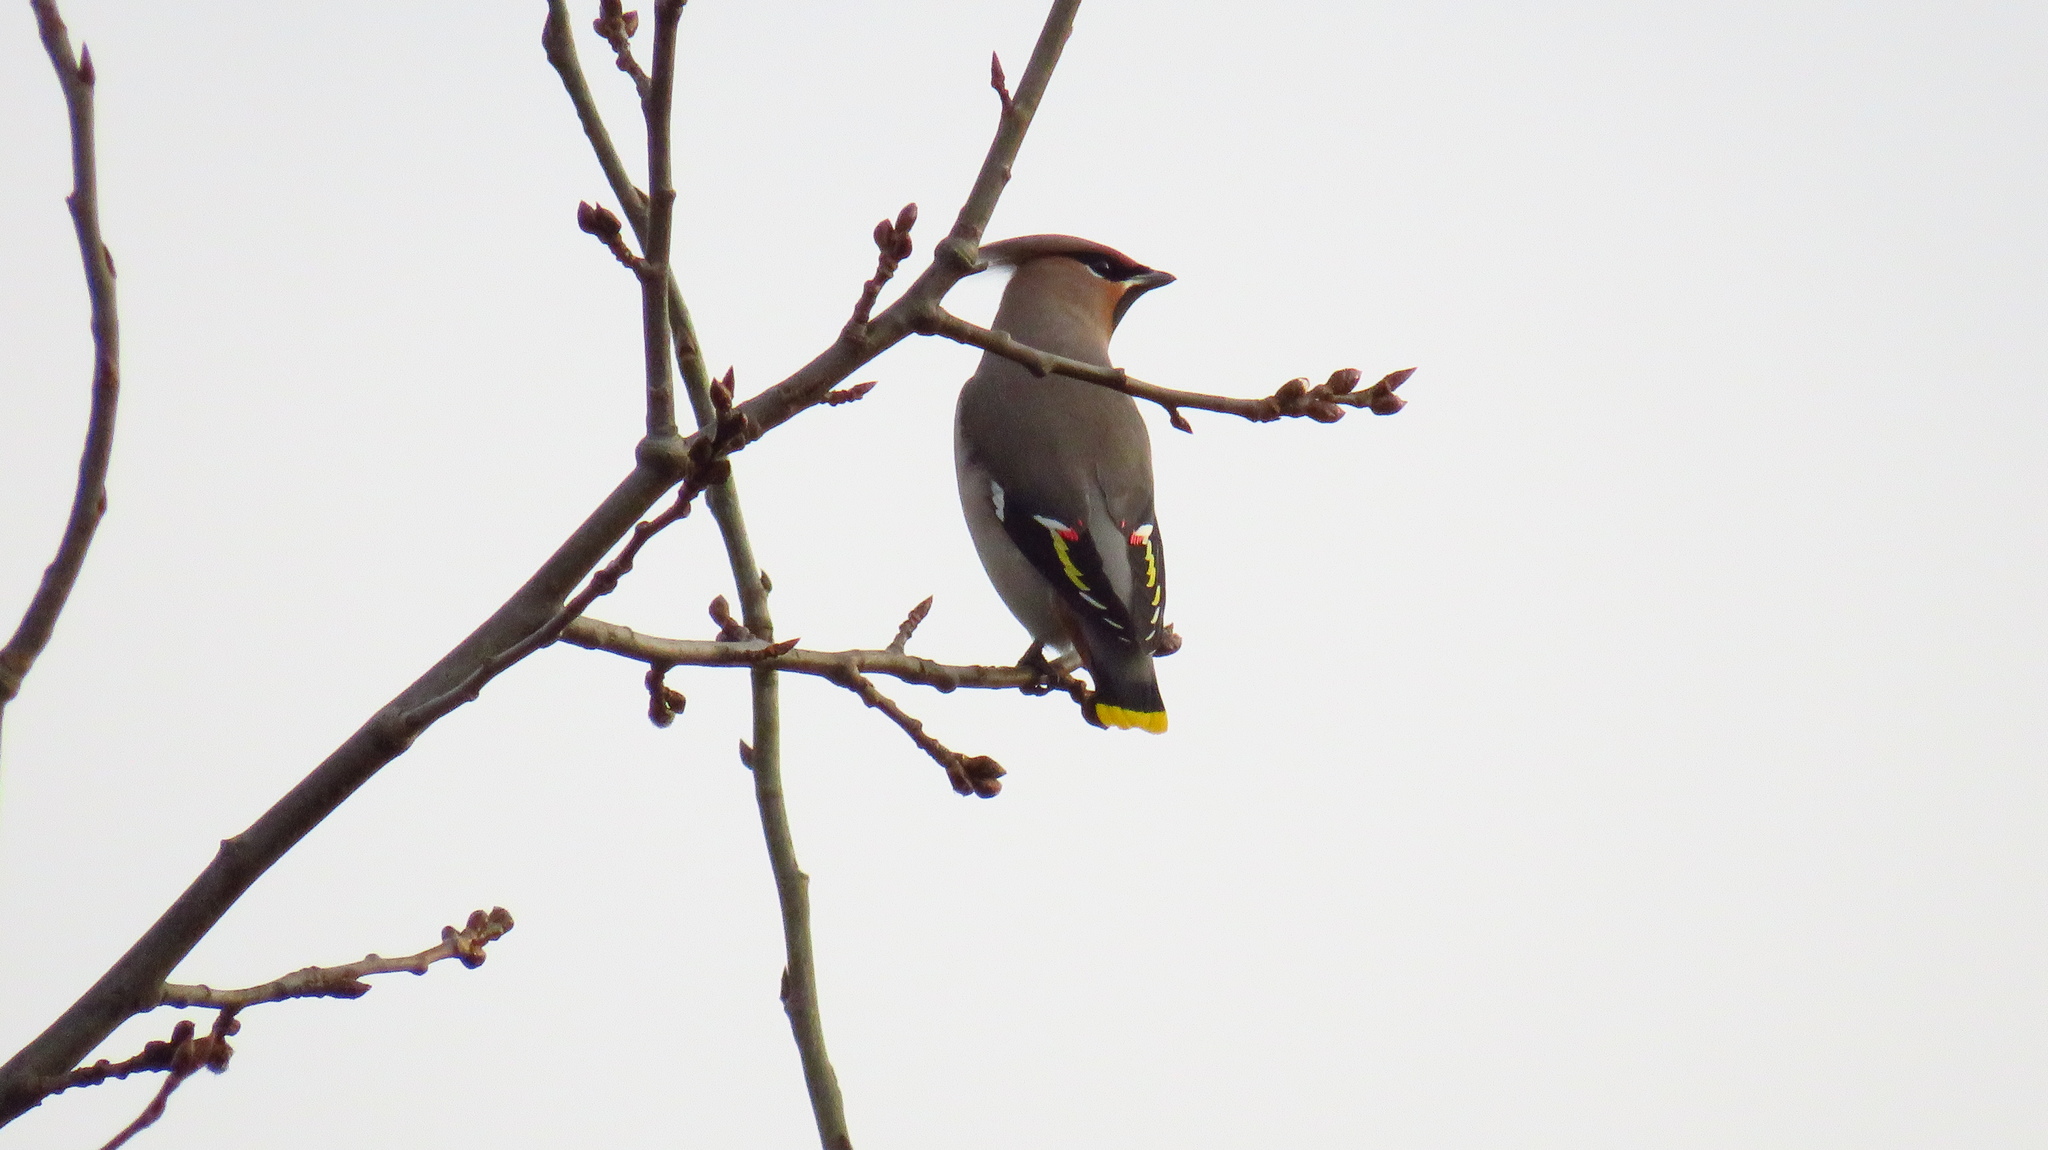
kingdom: Animalia
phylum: Chordata
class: Aves
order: Passeriformes
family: Bombycillidae
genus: Bombycilla
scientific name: Bombycilla garrulus
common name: Bohemian waxwing
